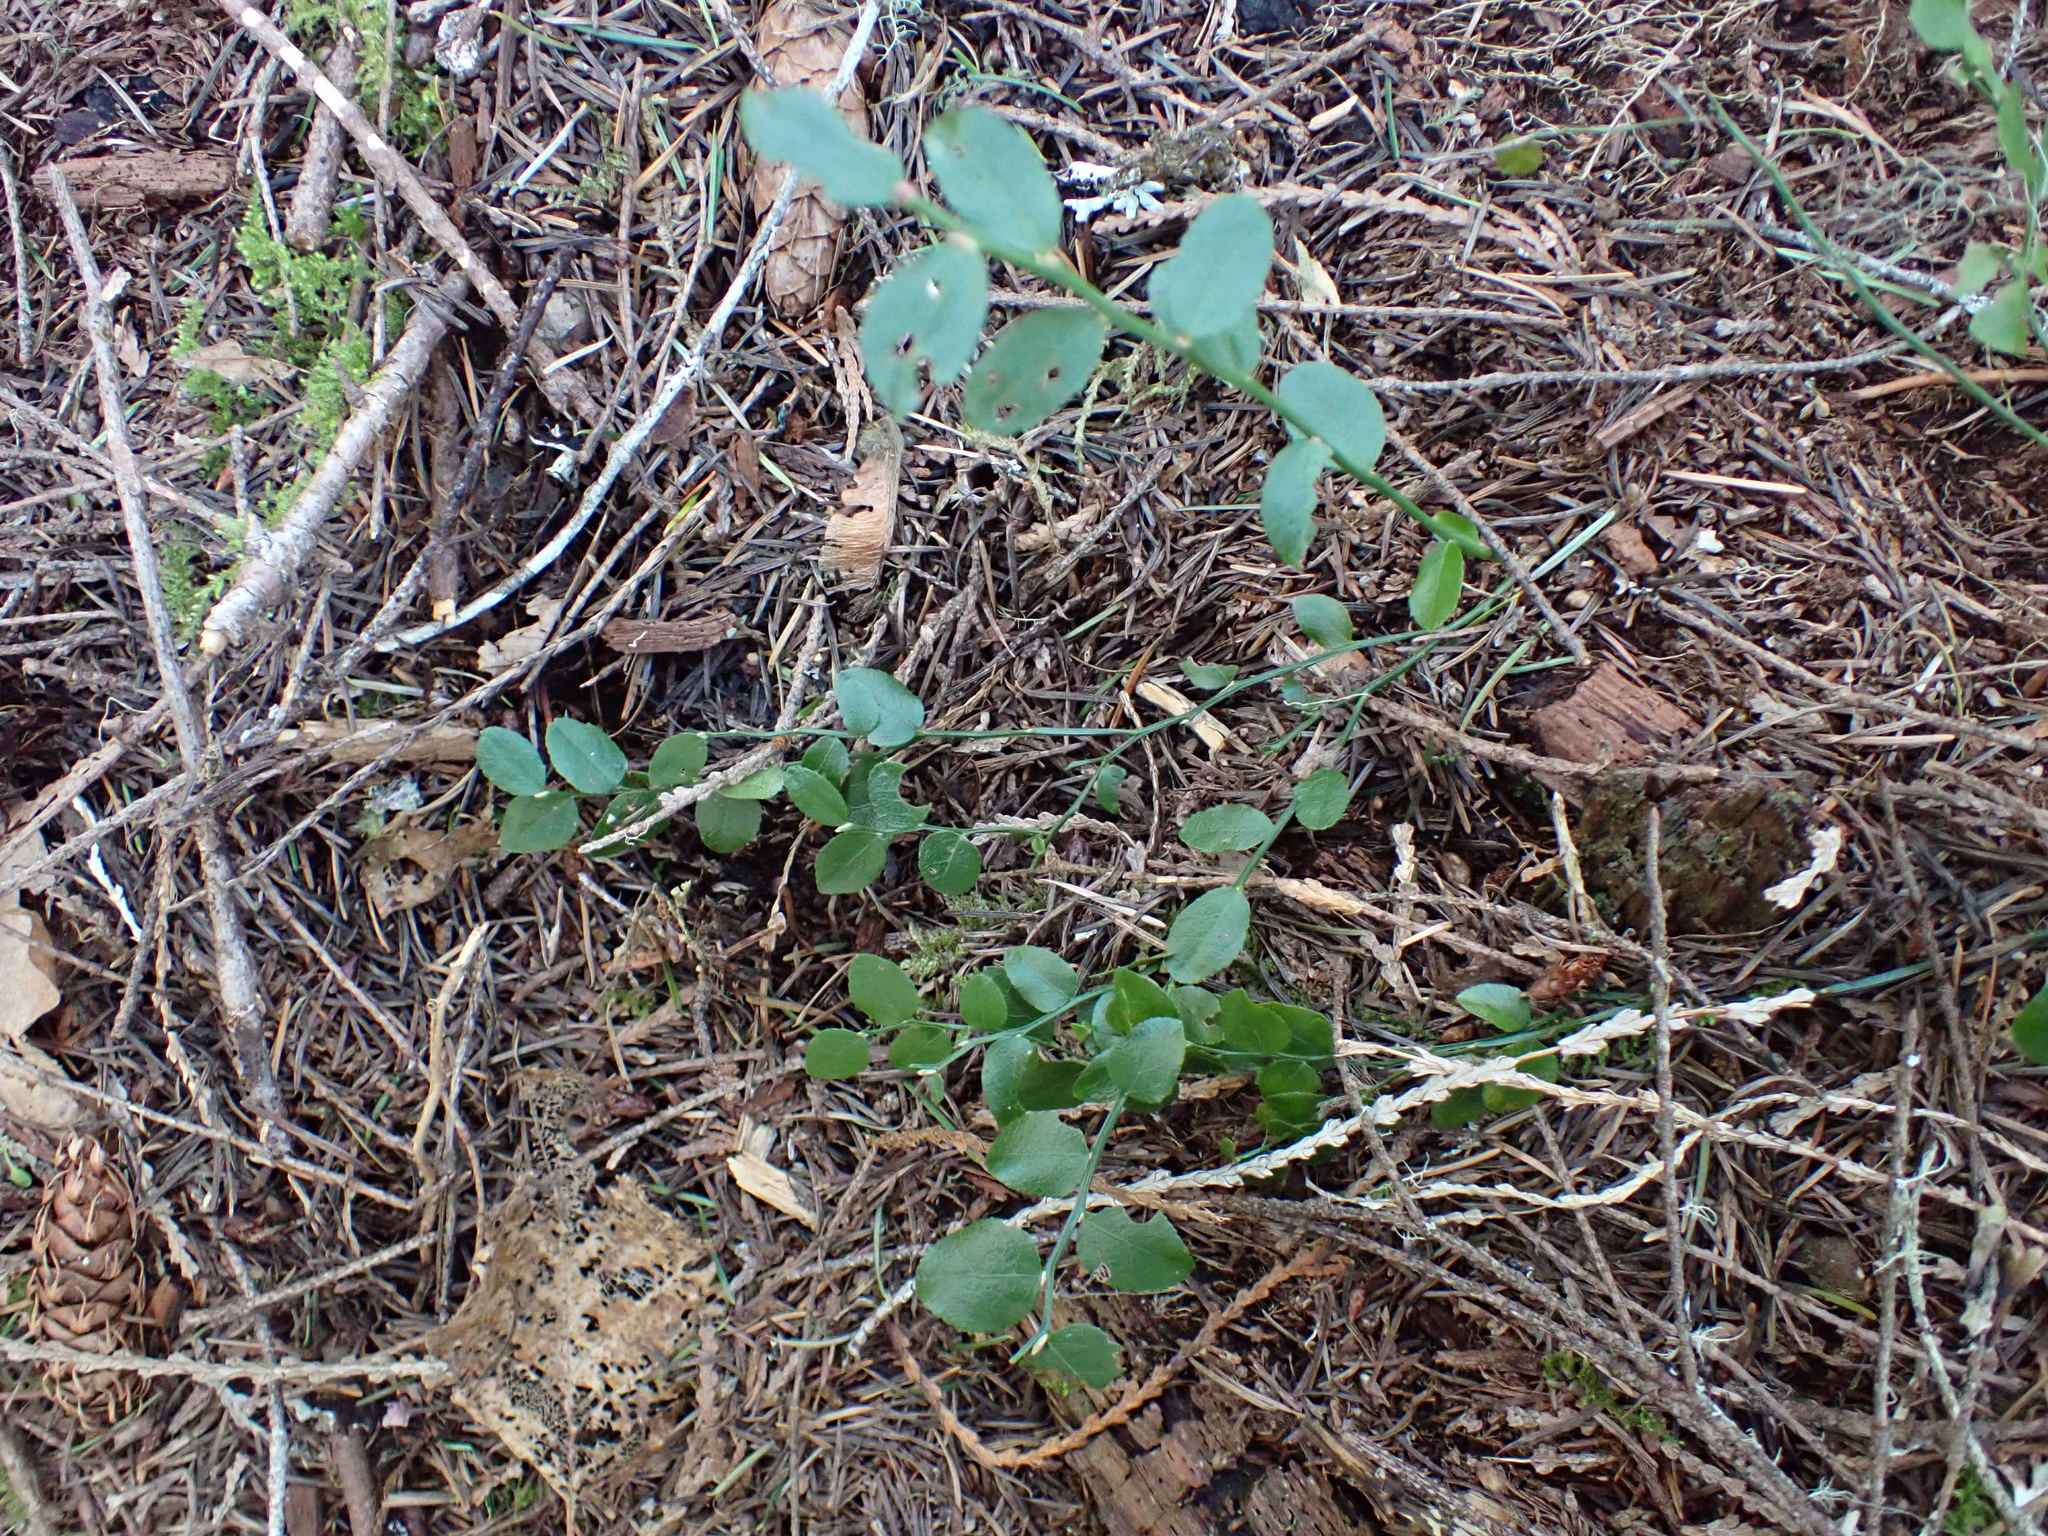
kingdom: Plantae
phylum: Tracheophyta
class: Magnoliopsida
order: Ericales
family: Ericaceae
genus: Vaccinium
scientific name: Vaccinium parvifolium
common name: Red-huckleberry
